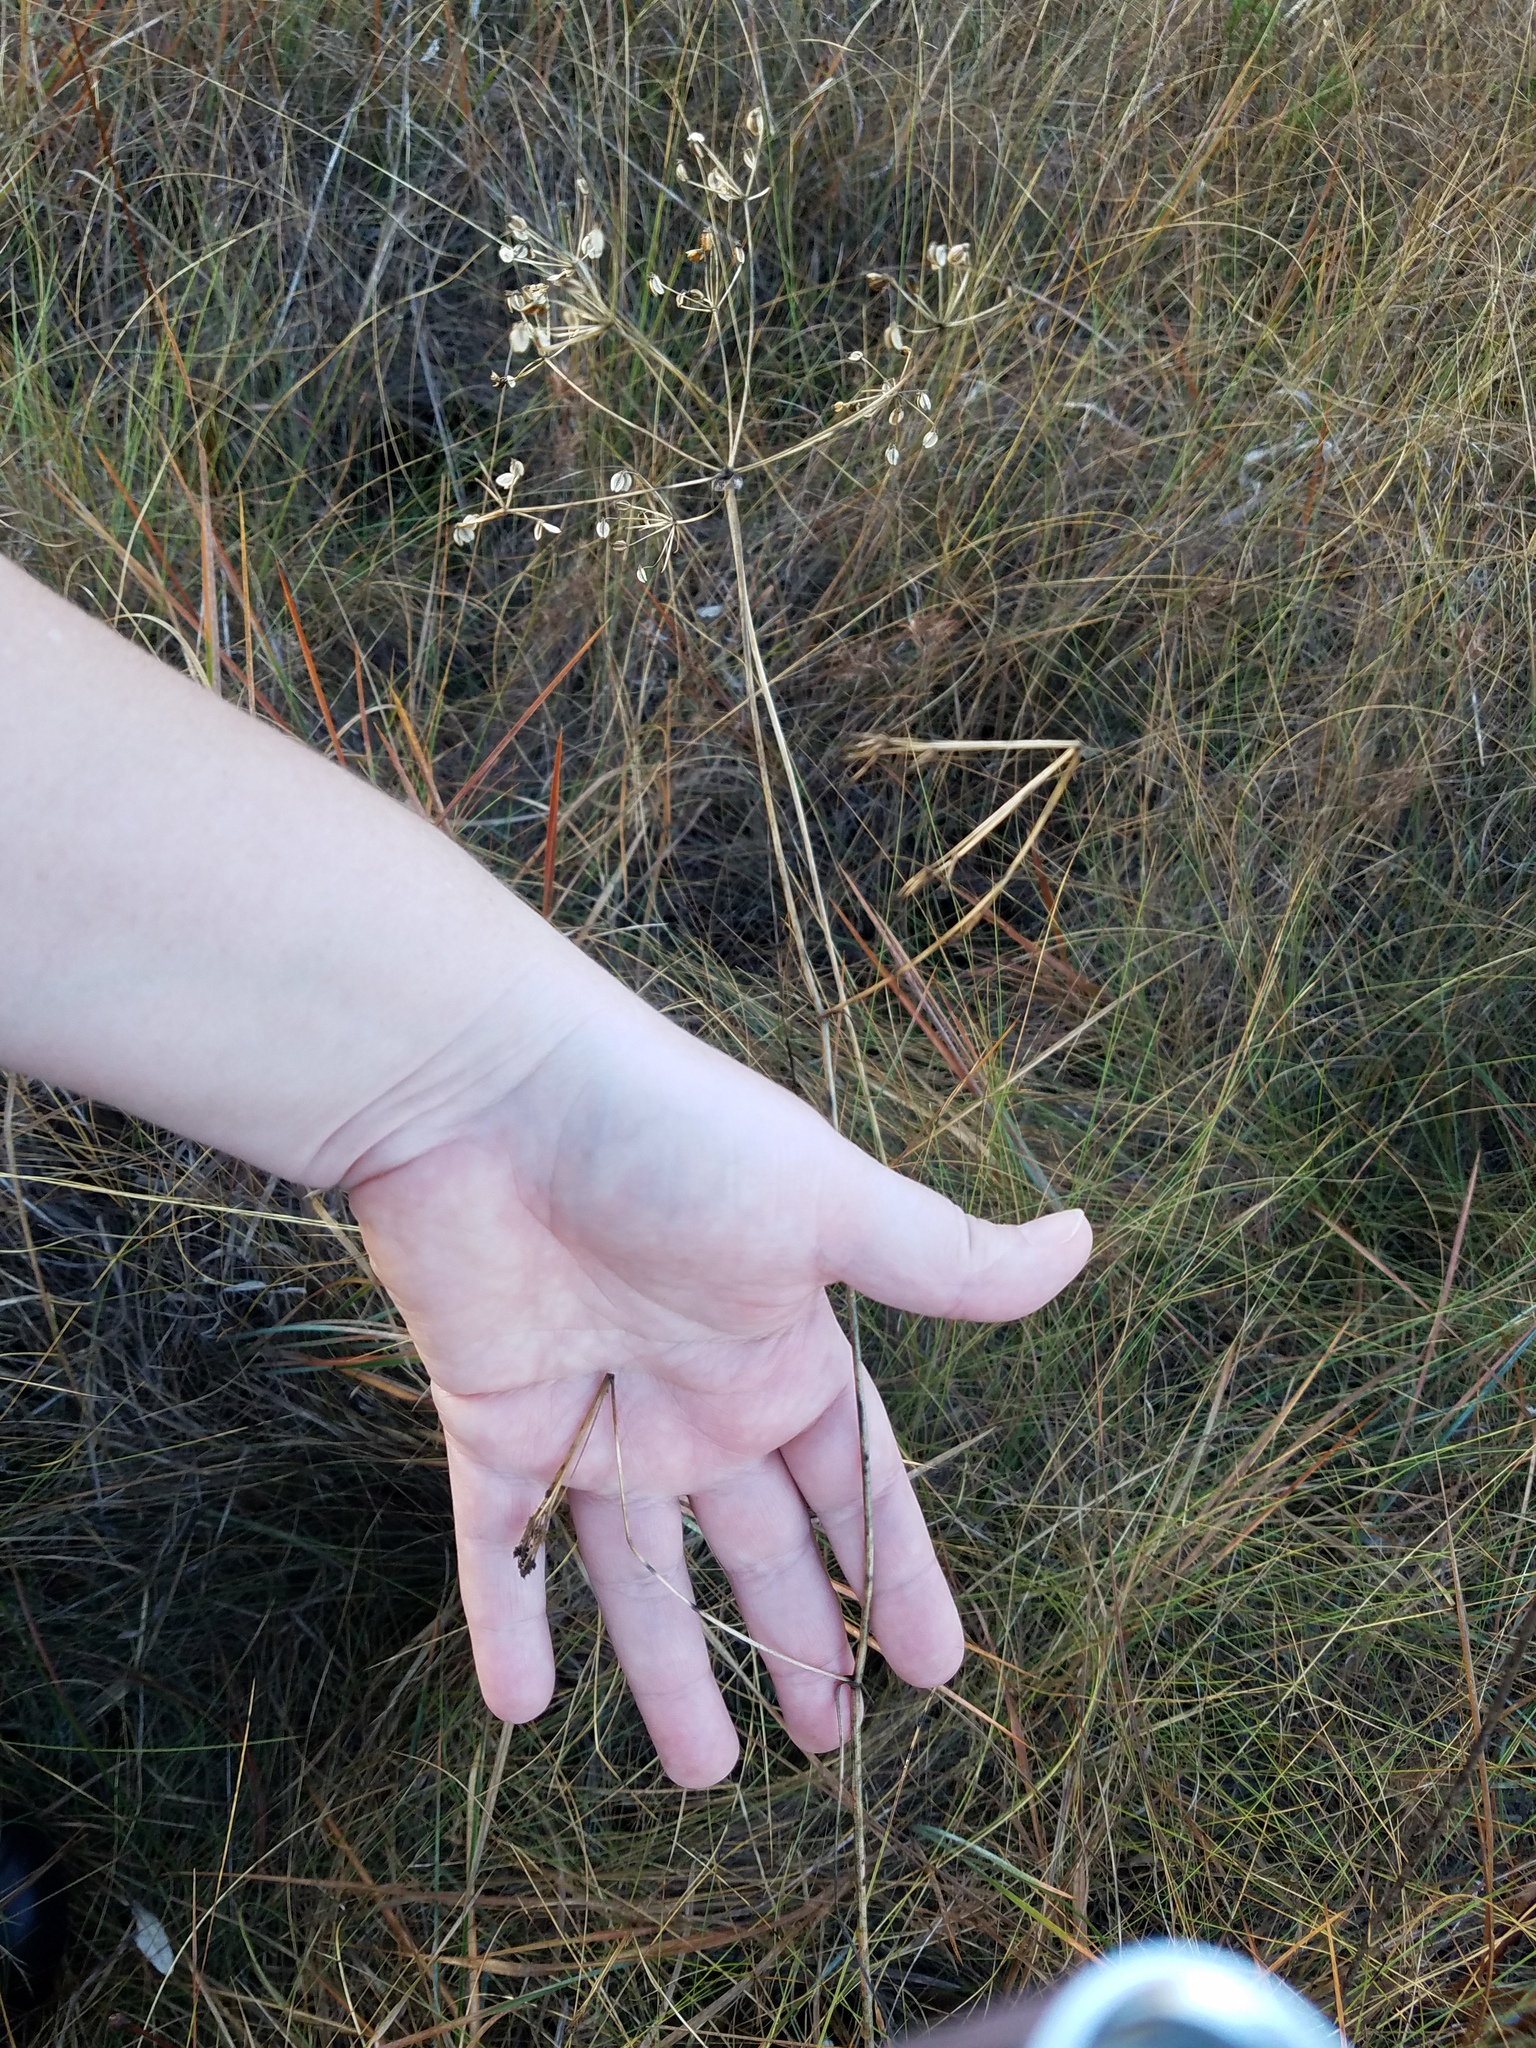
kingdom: Plantae
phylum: Tracheophyta
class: Magnoliopsida
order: Apiales
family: Apiaceae
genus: Tiedemannia
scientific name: Tiedemannia filiformis
